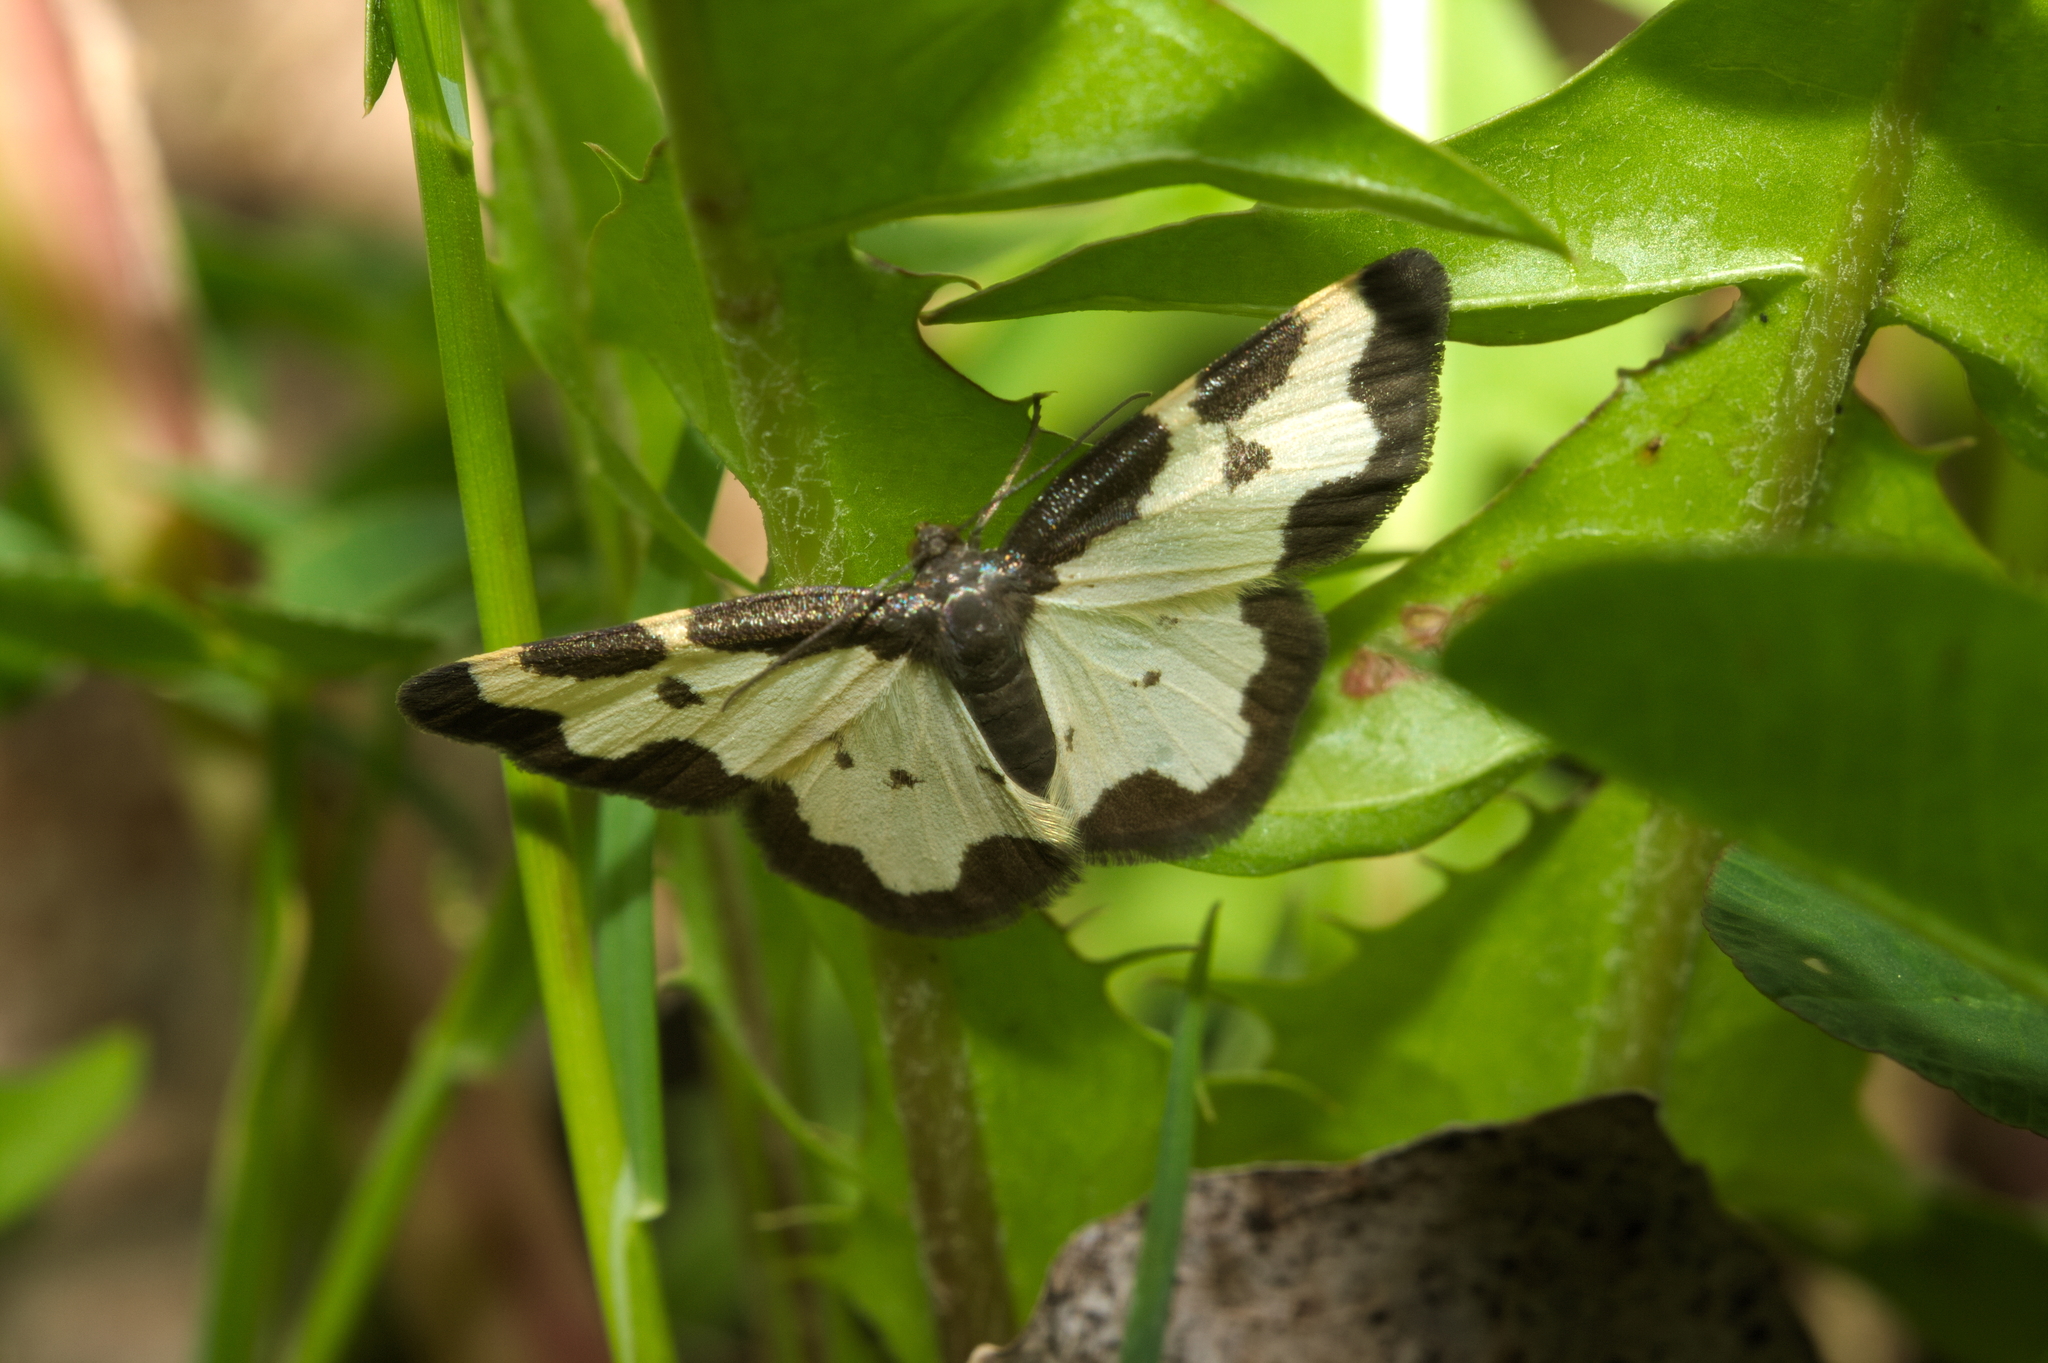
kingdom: Animalia
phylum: Arthropoda
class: Insecta
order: Lepidoptera
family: Geometridae
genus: Lomaspilis
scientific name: Lomaspilis marginata
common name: Clouded border
